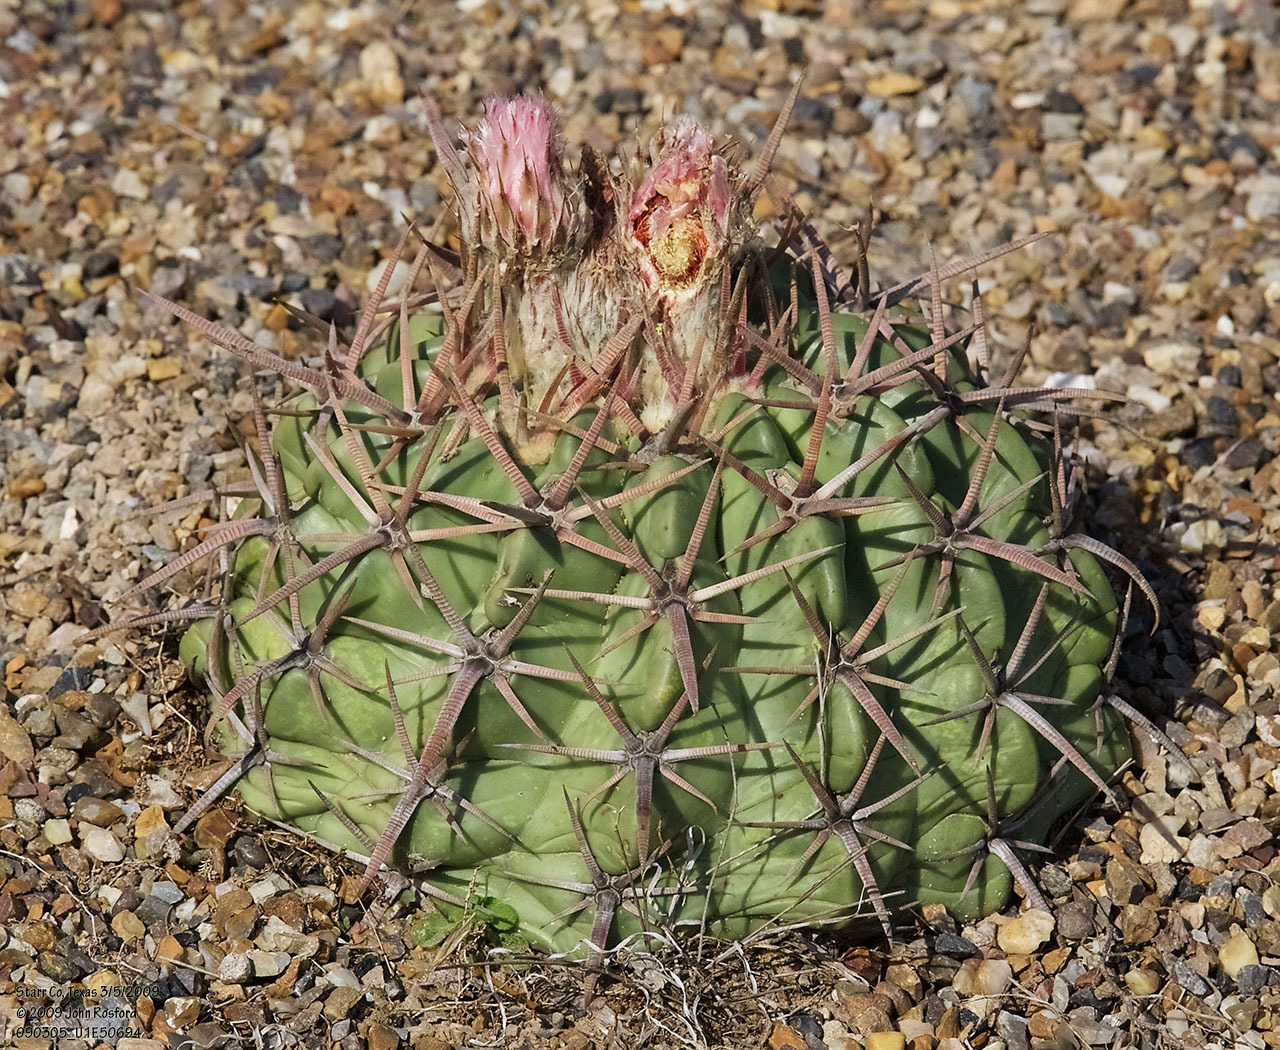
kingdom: Plantae
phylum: Tracheophyta
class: Magnoliopsida
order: Caryophyllales
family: Cactaceae
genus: Echinocactus
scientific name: Echinocactus texensis
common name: Devil's pincushion
